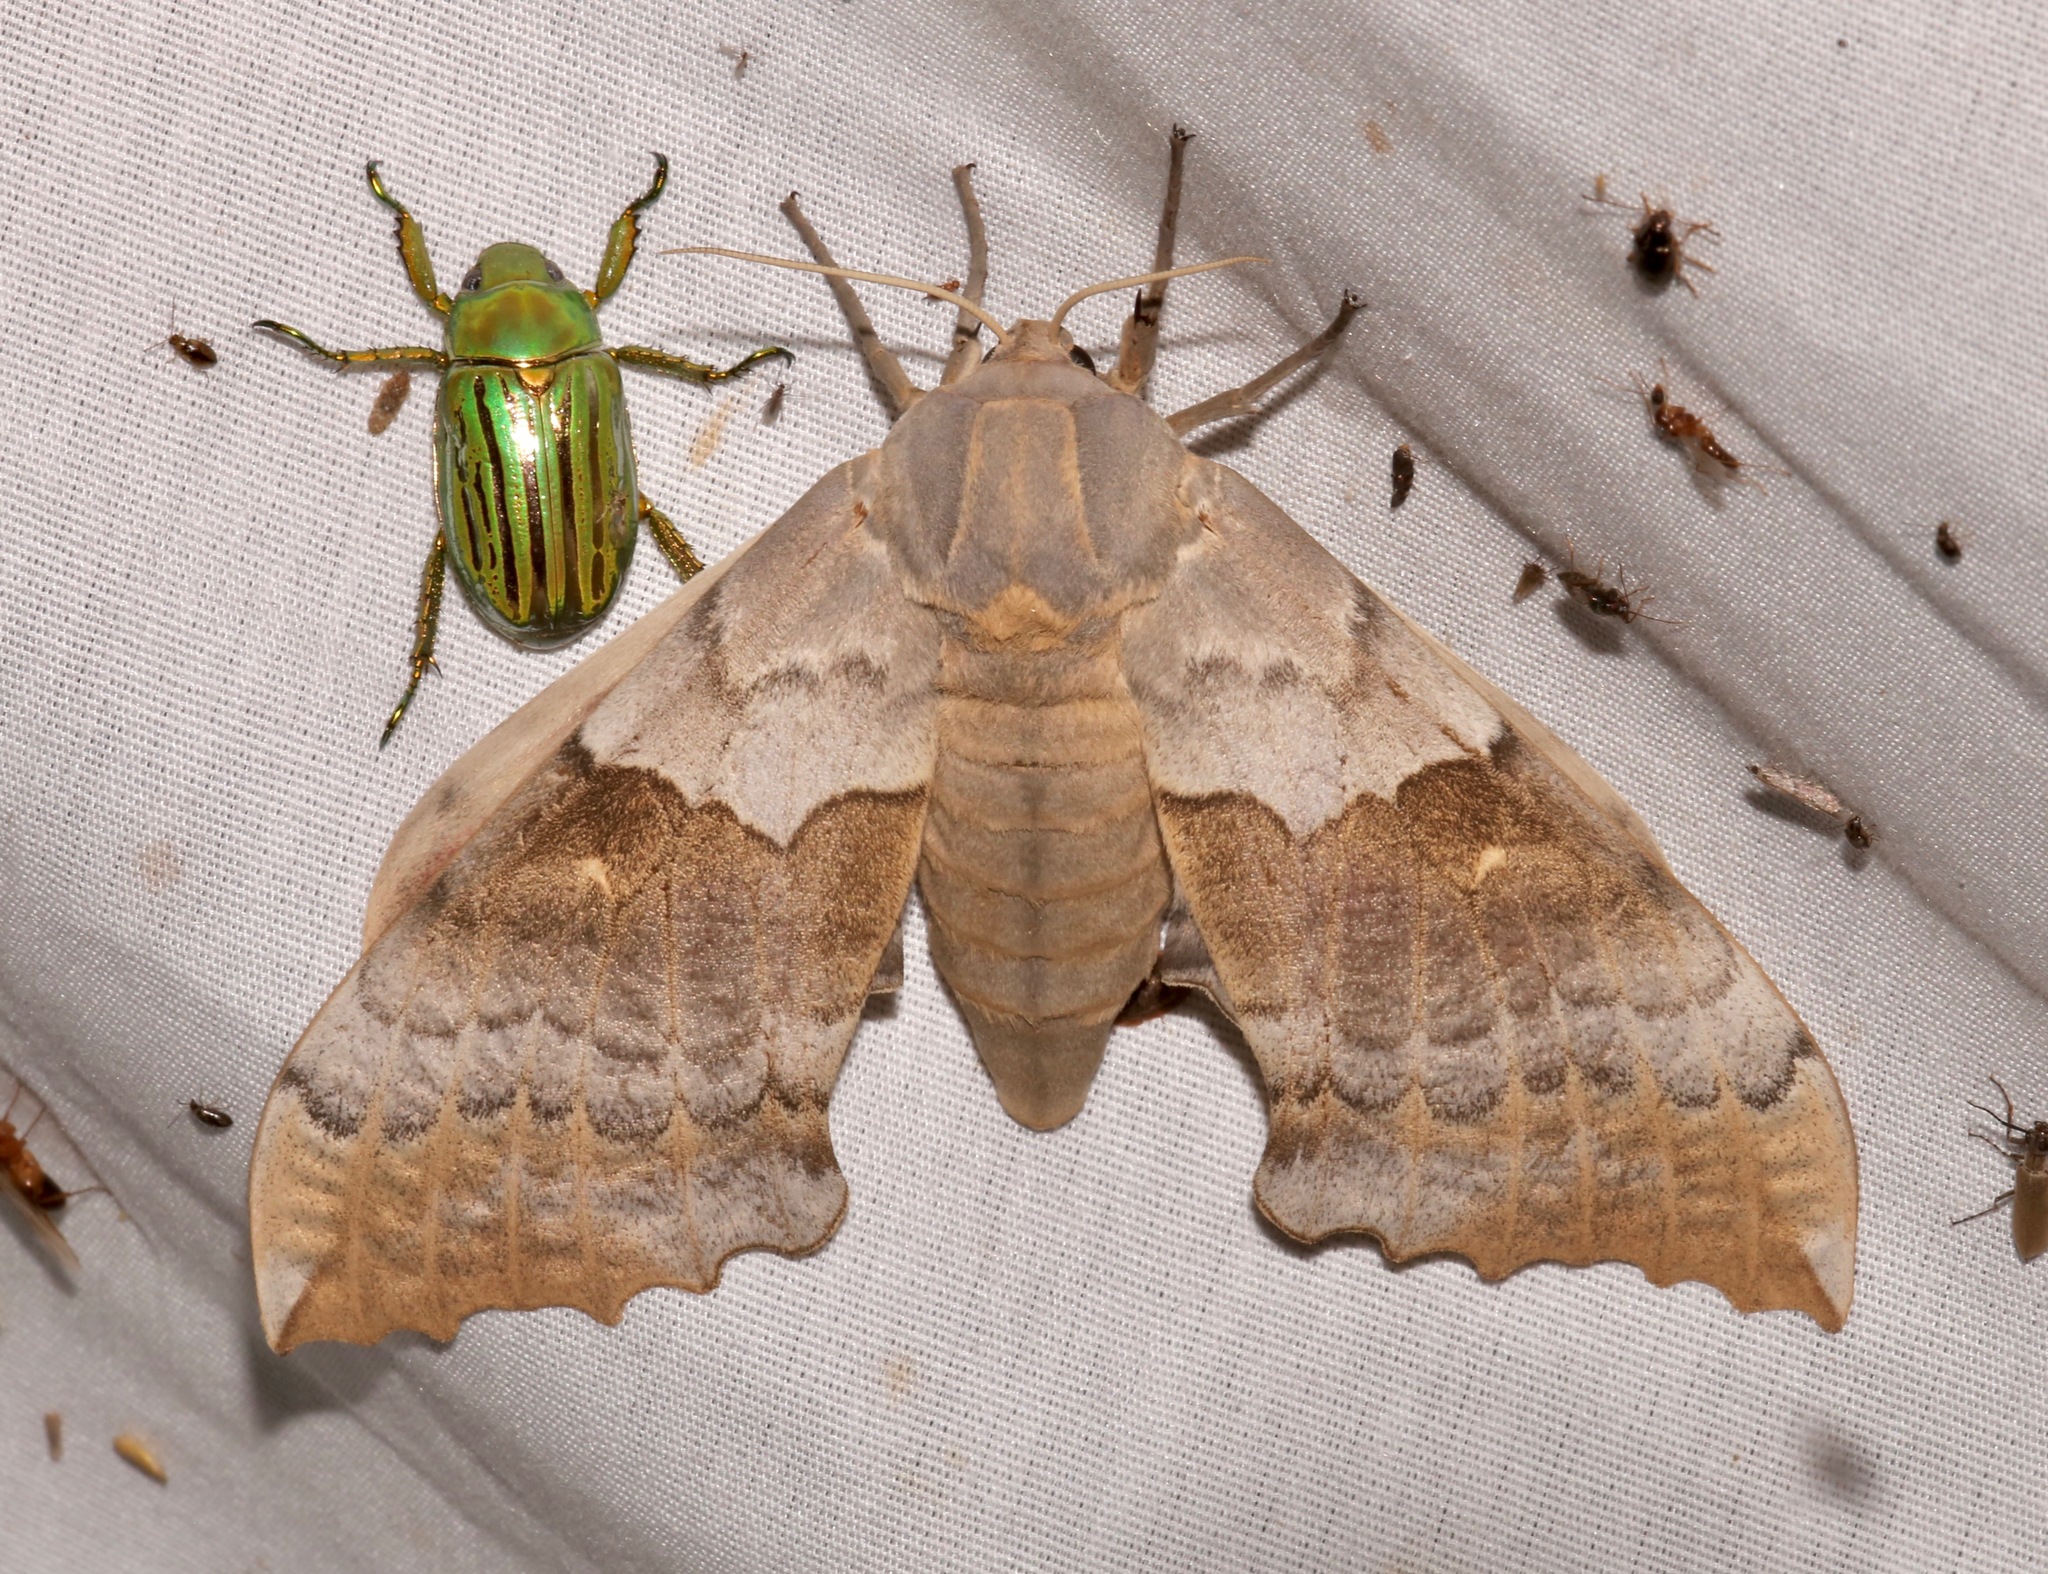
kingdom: Animalia
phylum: Arthropoda
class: Insecta
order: Lepidoptera
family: Sphingidae
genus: Pachysphinx
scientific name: Pachysphinx occidentalis
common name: Western poplar sphinx
